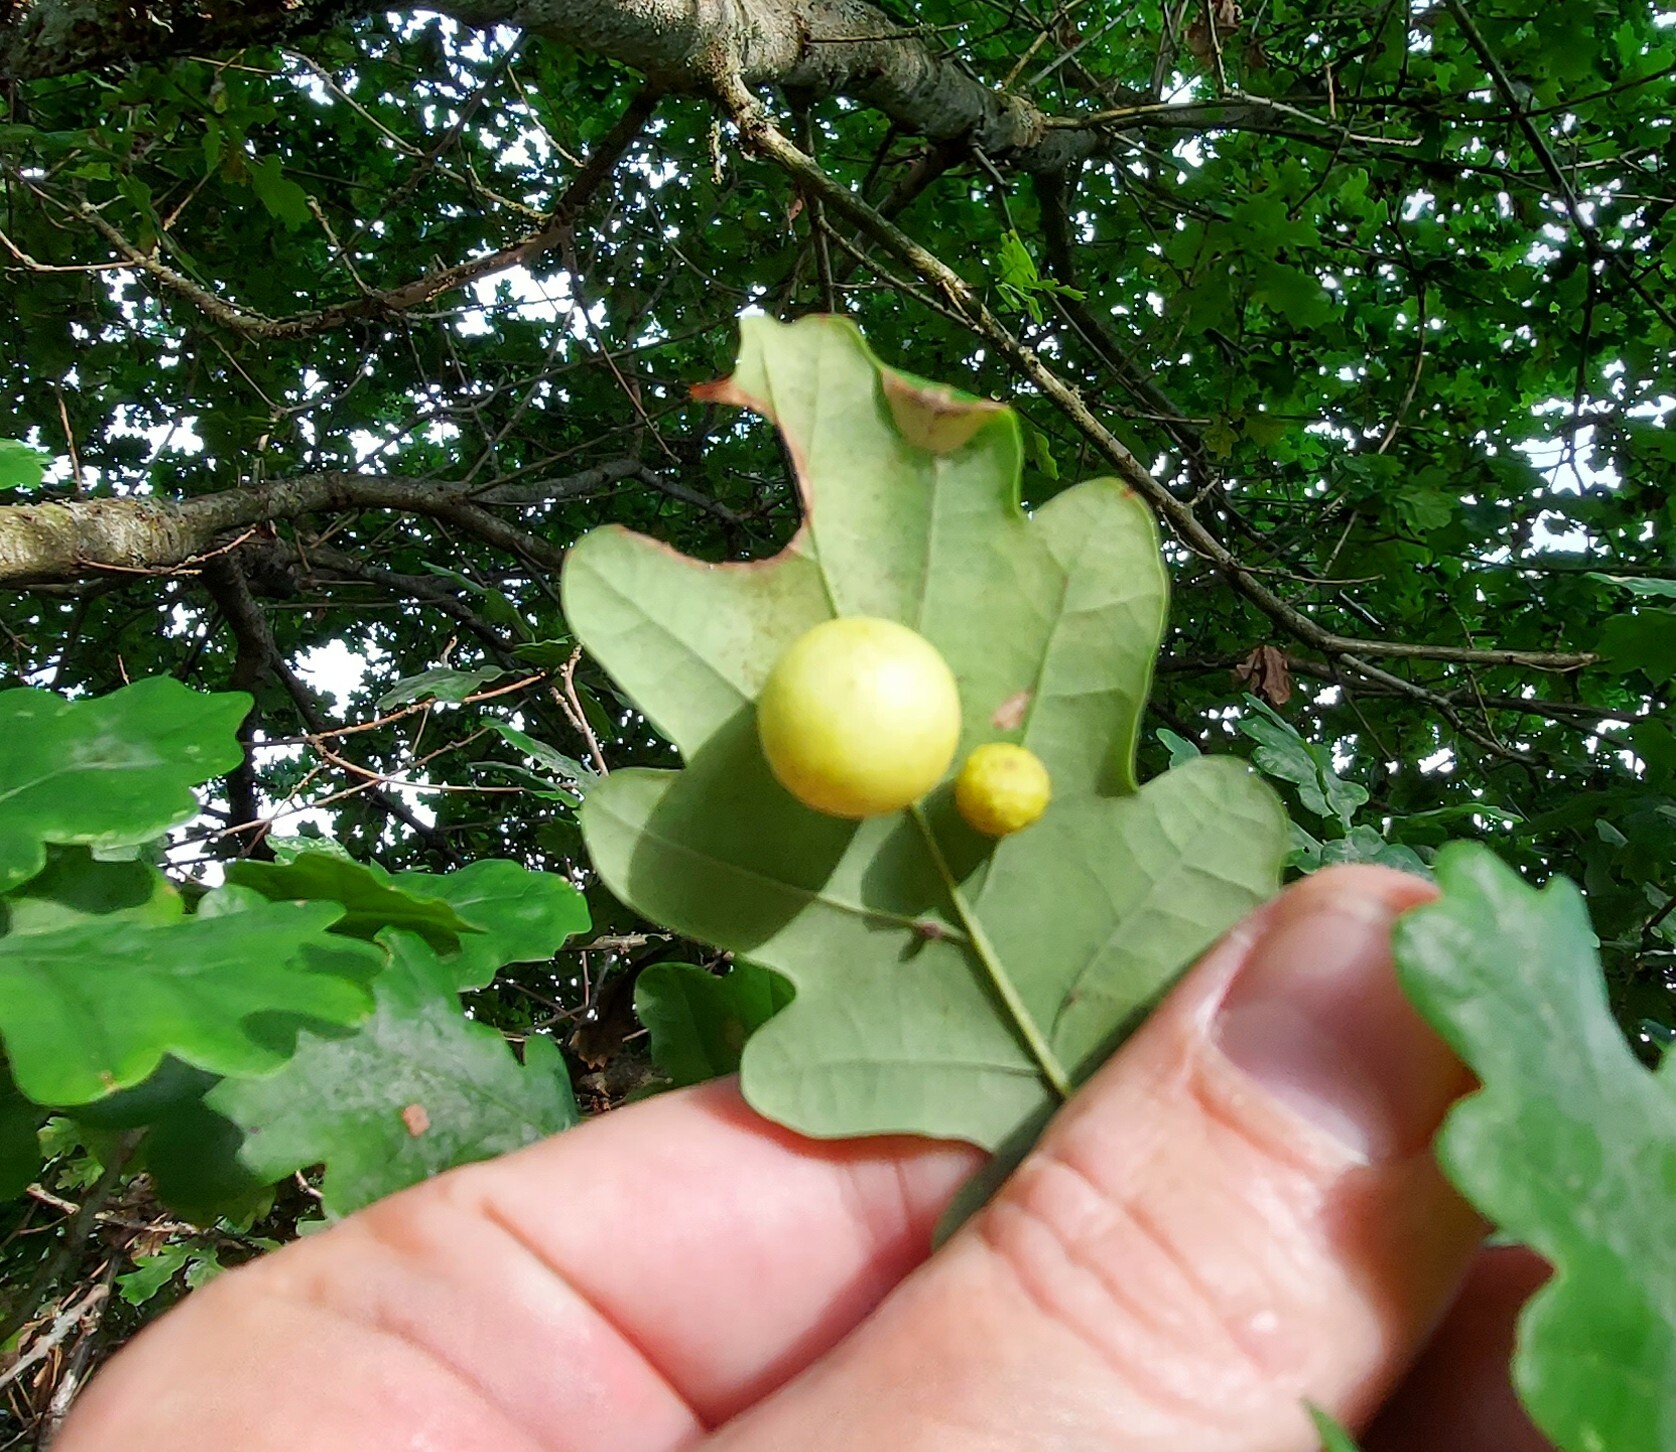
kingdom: Animalia
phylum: Arthropoda
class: Insecta
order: Hymenoptera
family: Cynipidae
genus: Cynips
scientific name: Cynips quercusfolii
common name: Cherry gall
